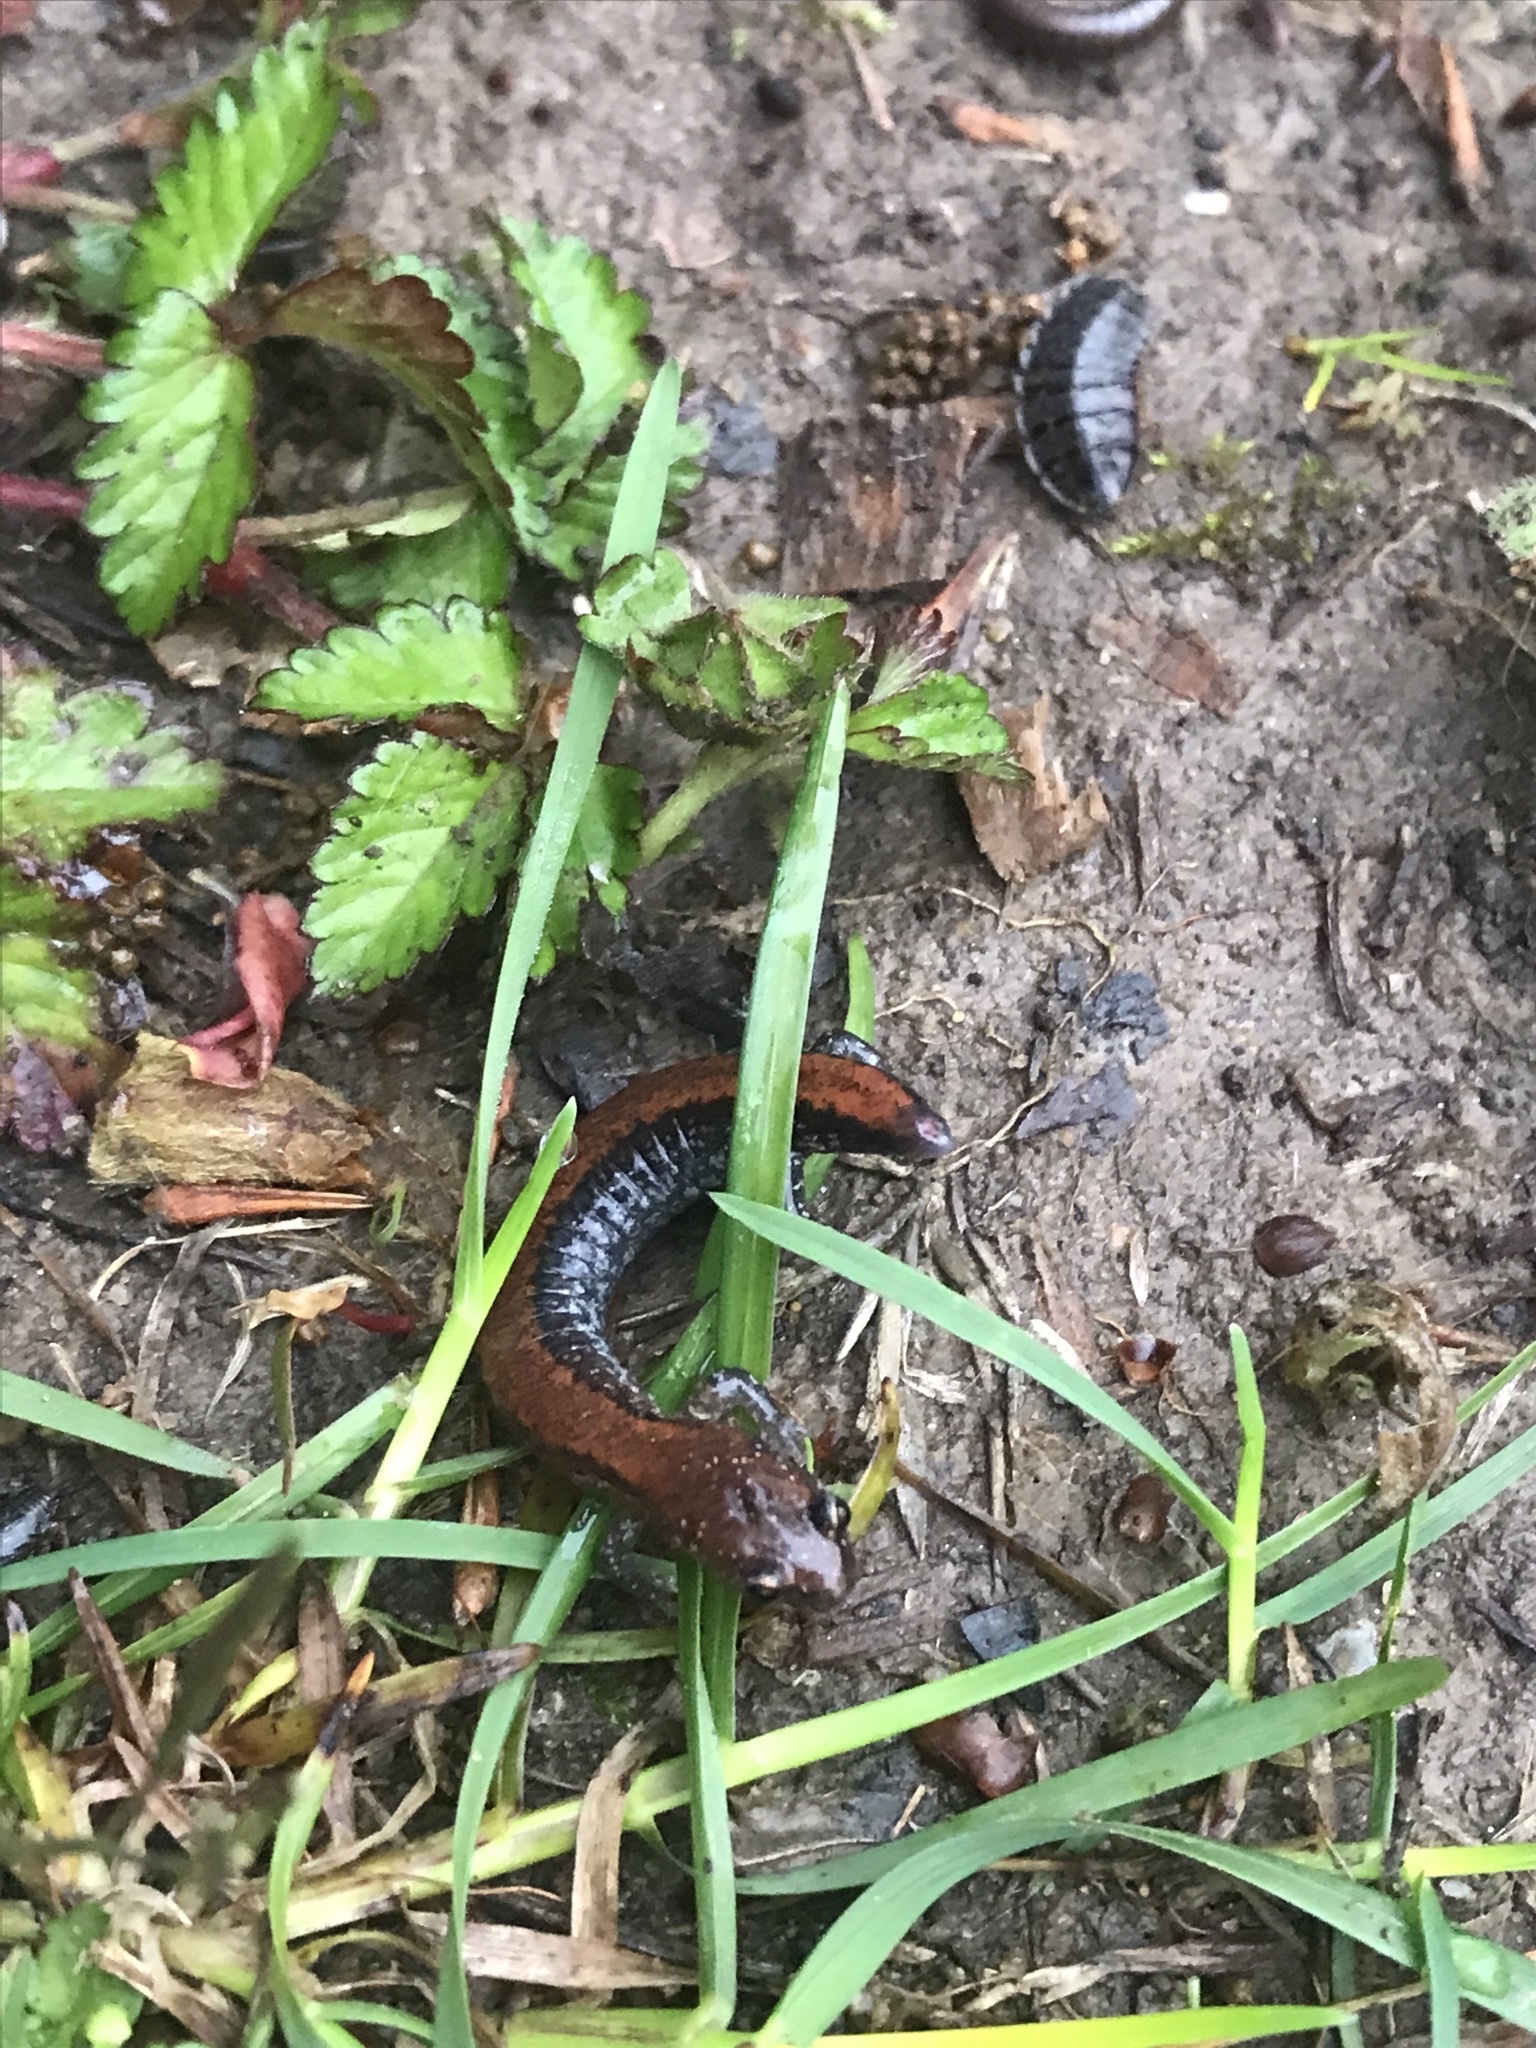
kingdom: Animalia
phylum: Chordata
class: Amphibia
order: Caudata
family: Plethodontidae
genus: Plethodon
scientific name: Plethodon cinereus
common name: Redback salamander
